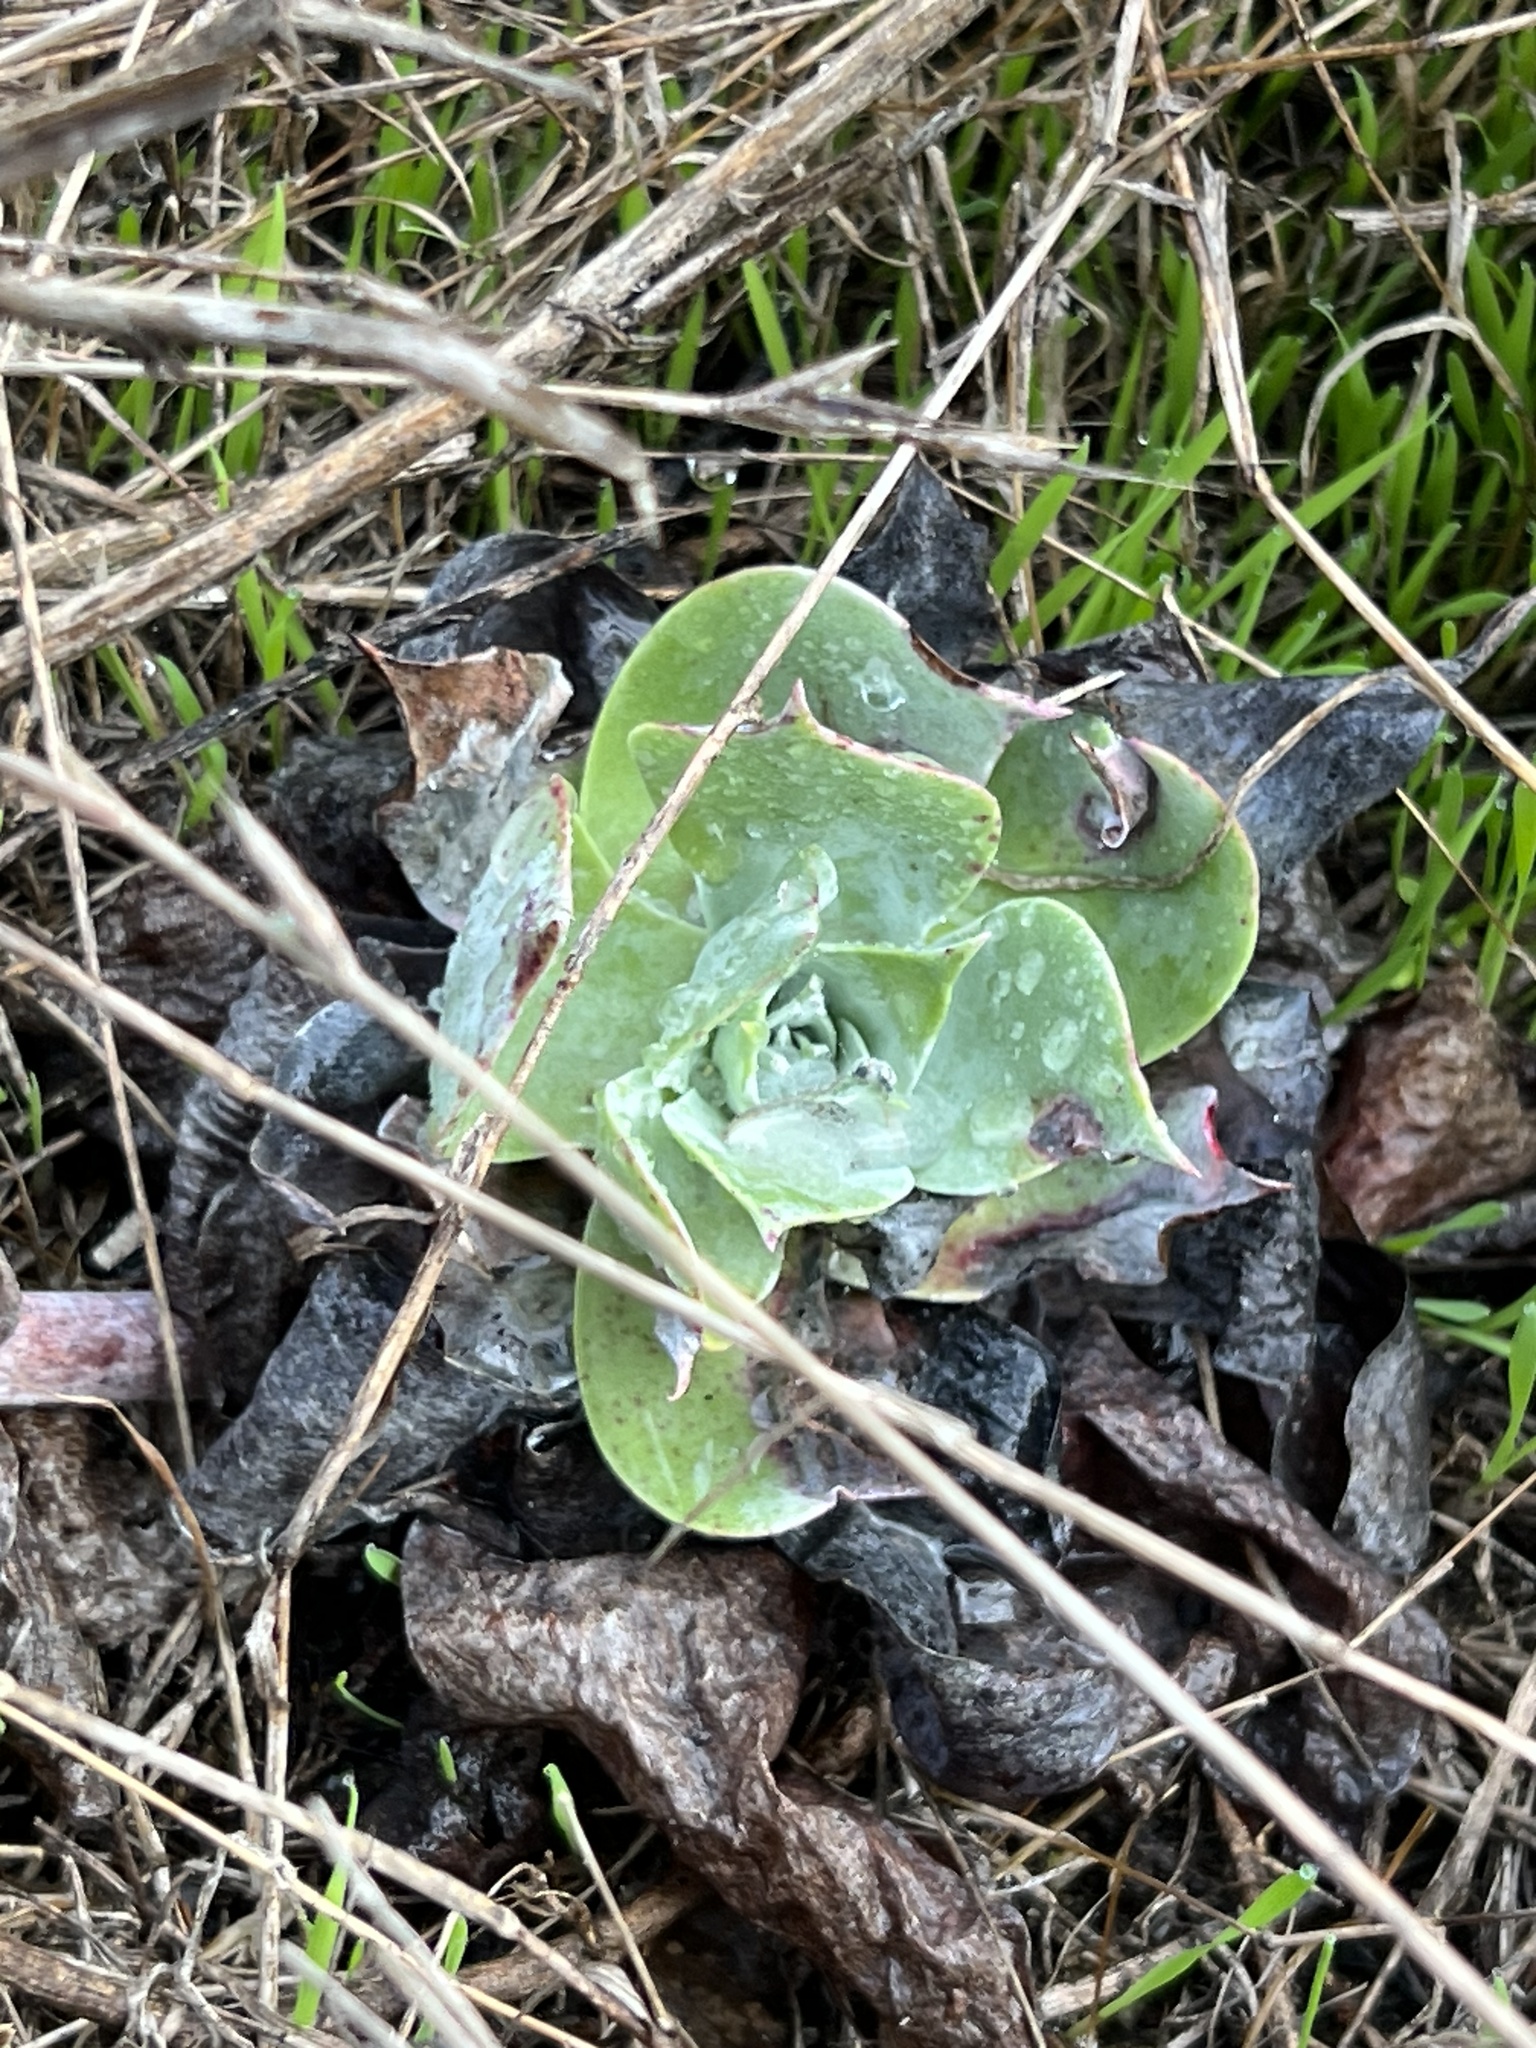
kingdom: Plantae
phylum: Tracheophyta
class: Magnoliopsida
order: Saxifragales
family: Crassulaceae
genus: Dudleya
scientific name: Dudleya pulverulenta
